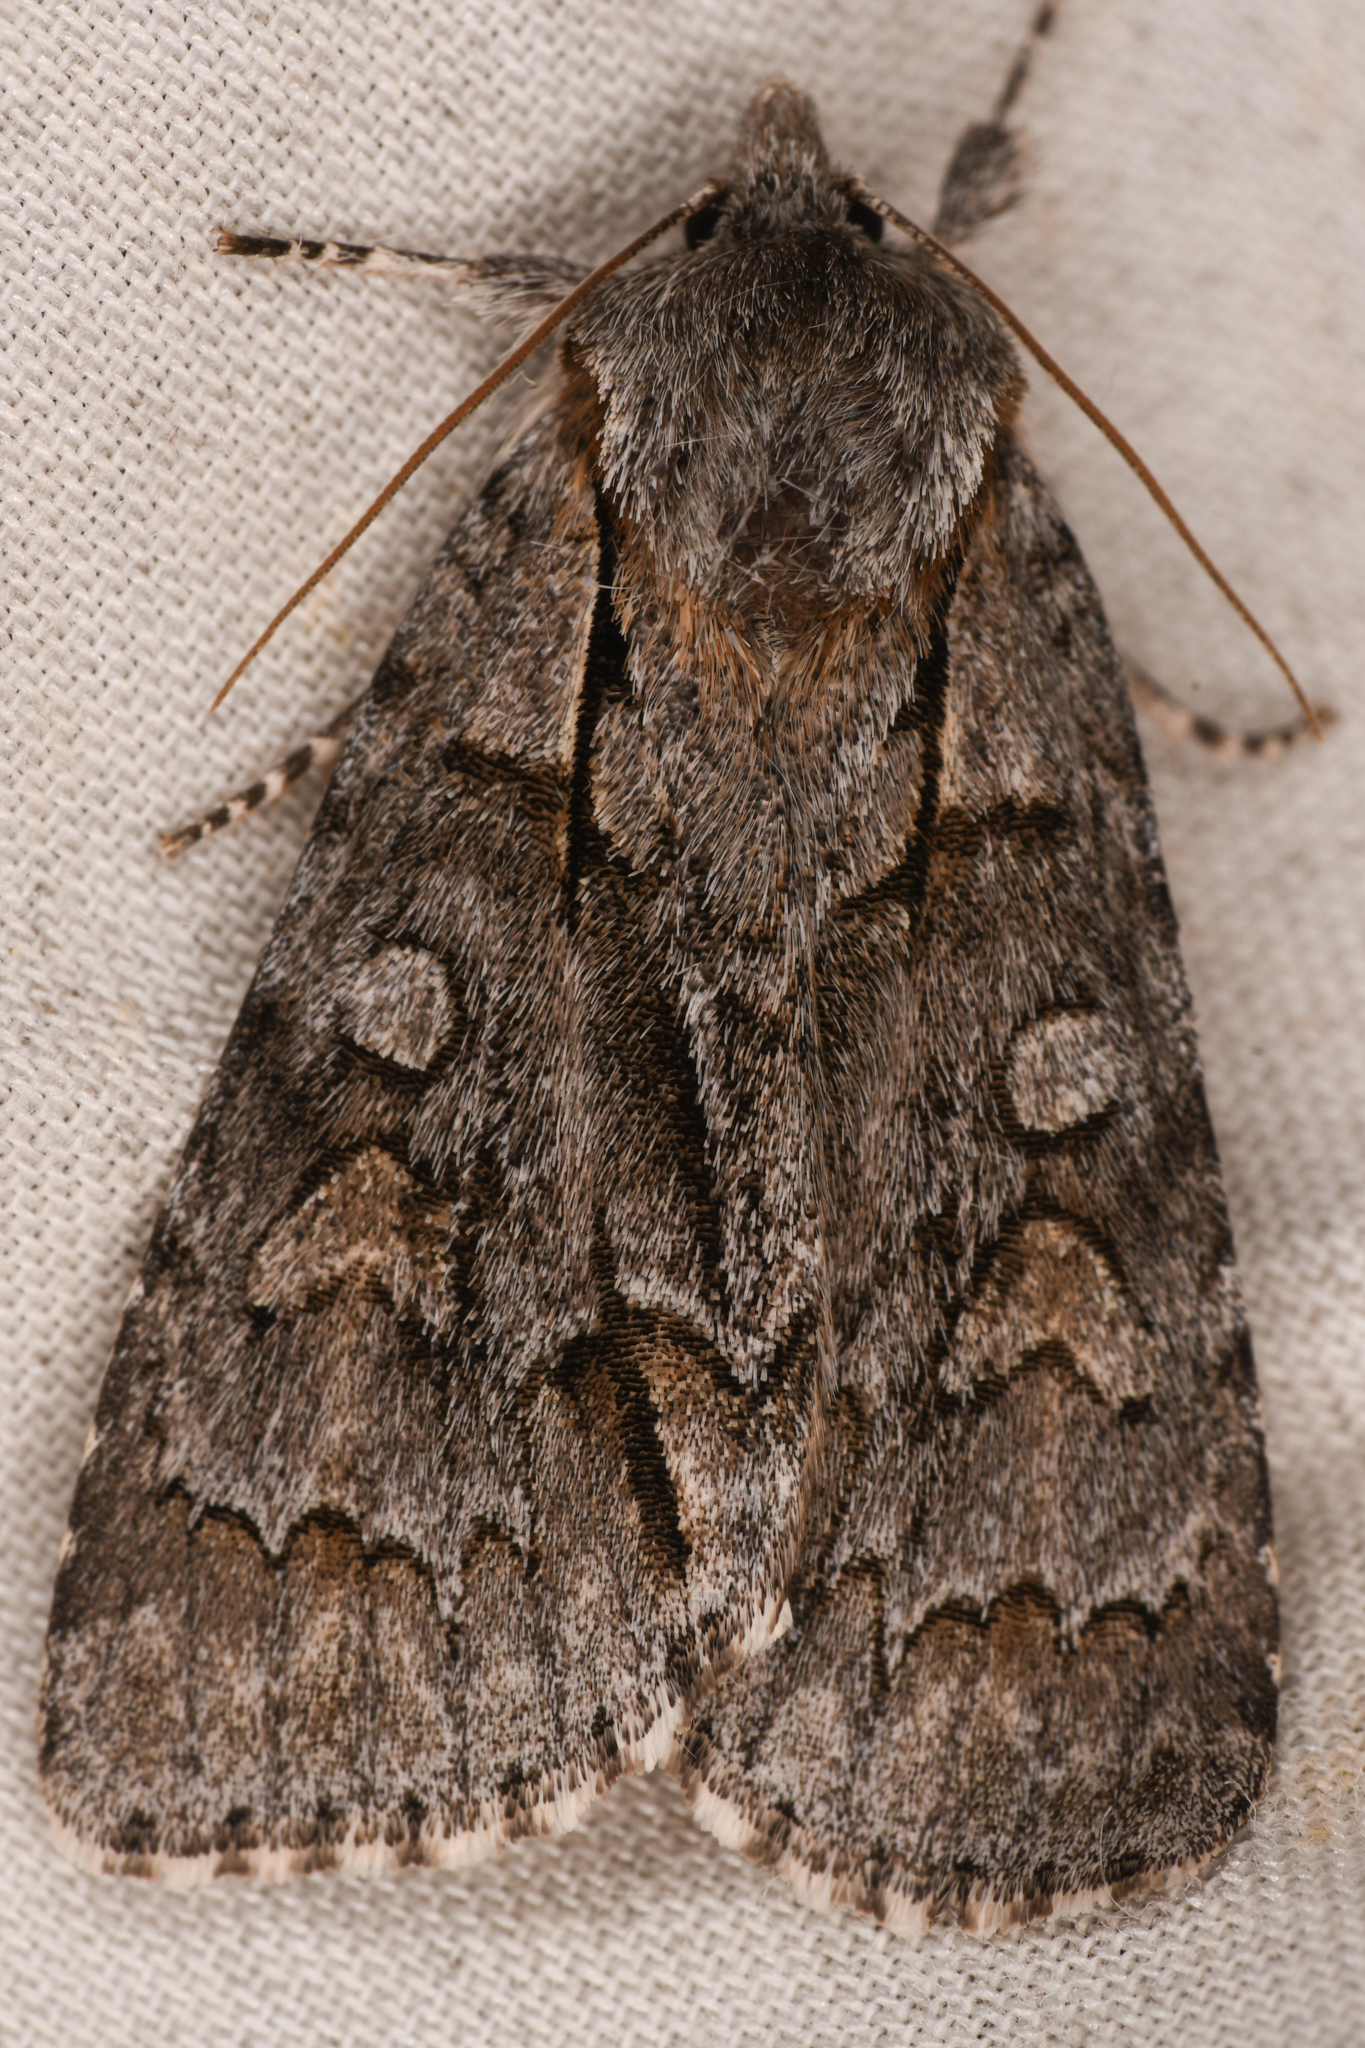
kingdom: Animalia
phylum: Arthropoda
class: Insecta
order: Lepidoptera
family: Noctuidae
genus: Acronicta
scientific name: Acronicta grisea
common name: Gray dagger
